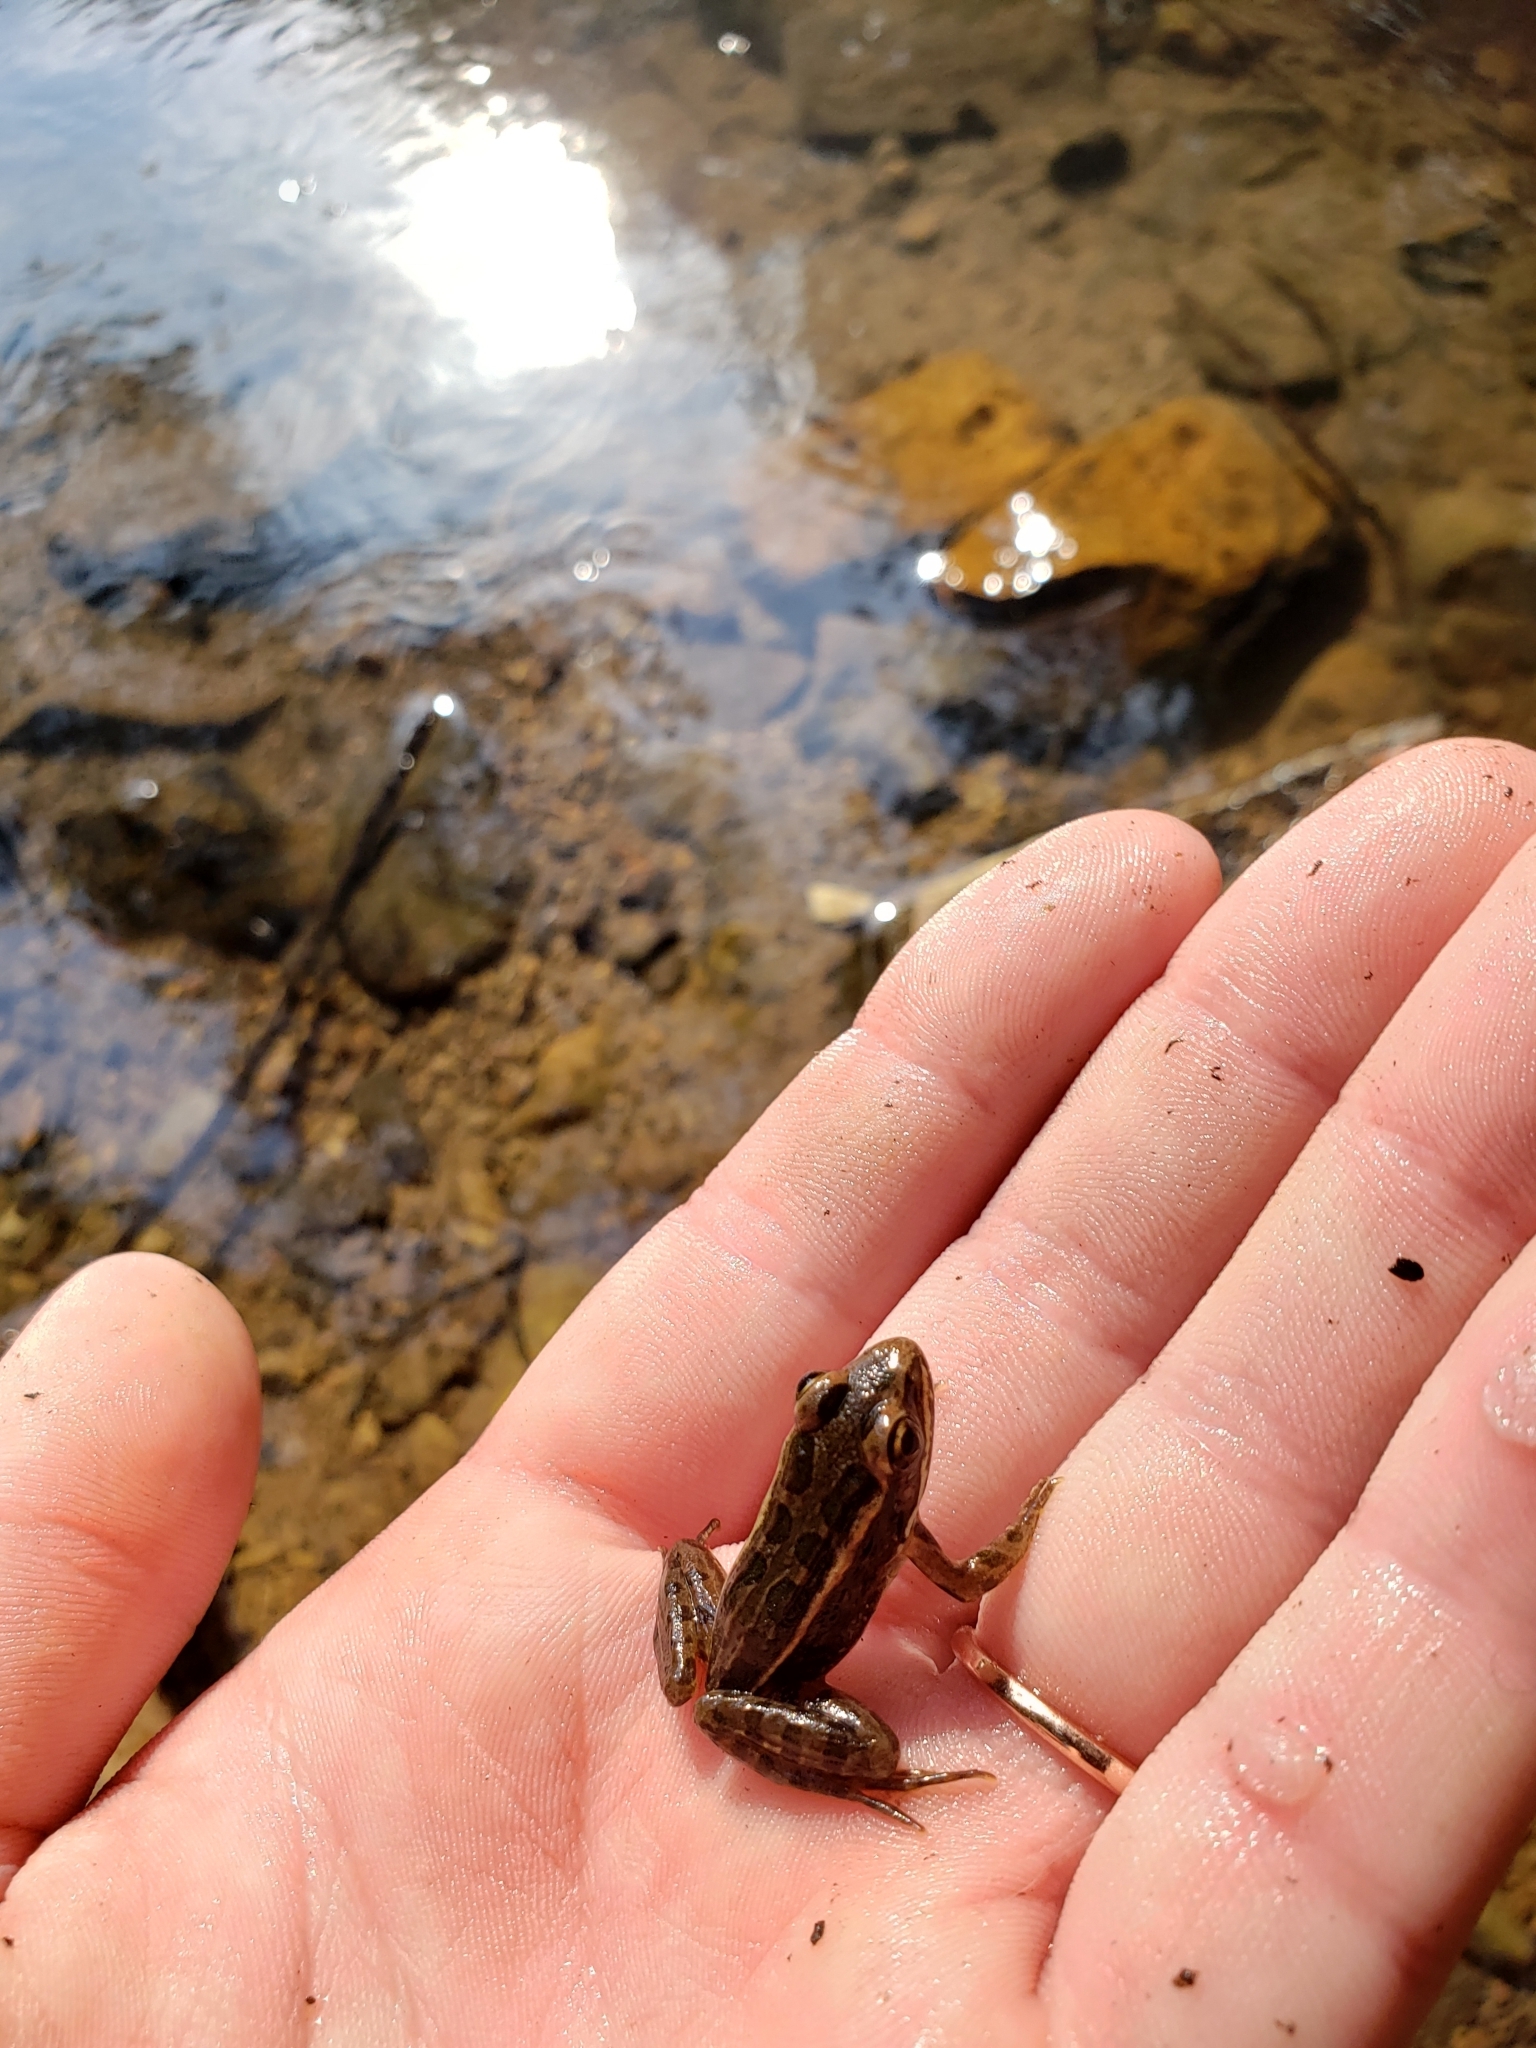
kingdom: Animalia
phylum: Chordata
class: Amphibia
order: Anura
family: Ranidae
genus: Lithobates
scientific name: Lithobates palustris
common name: Pickerel frog
